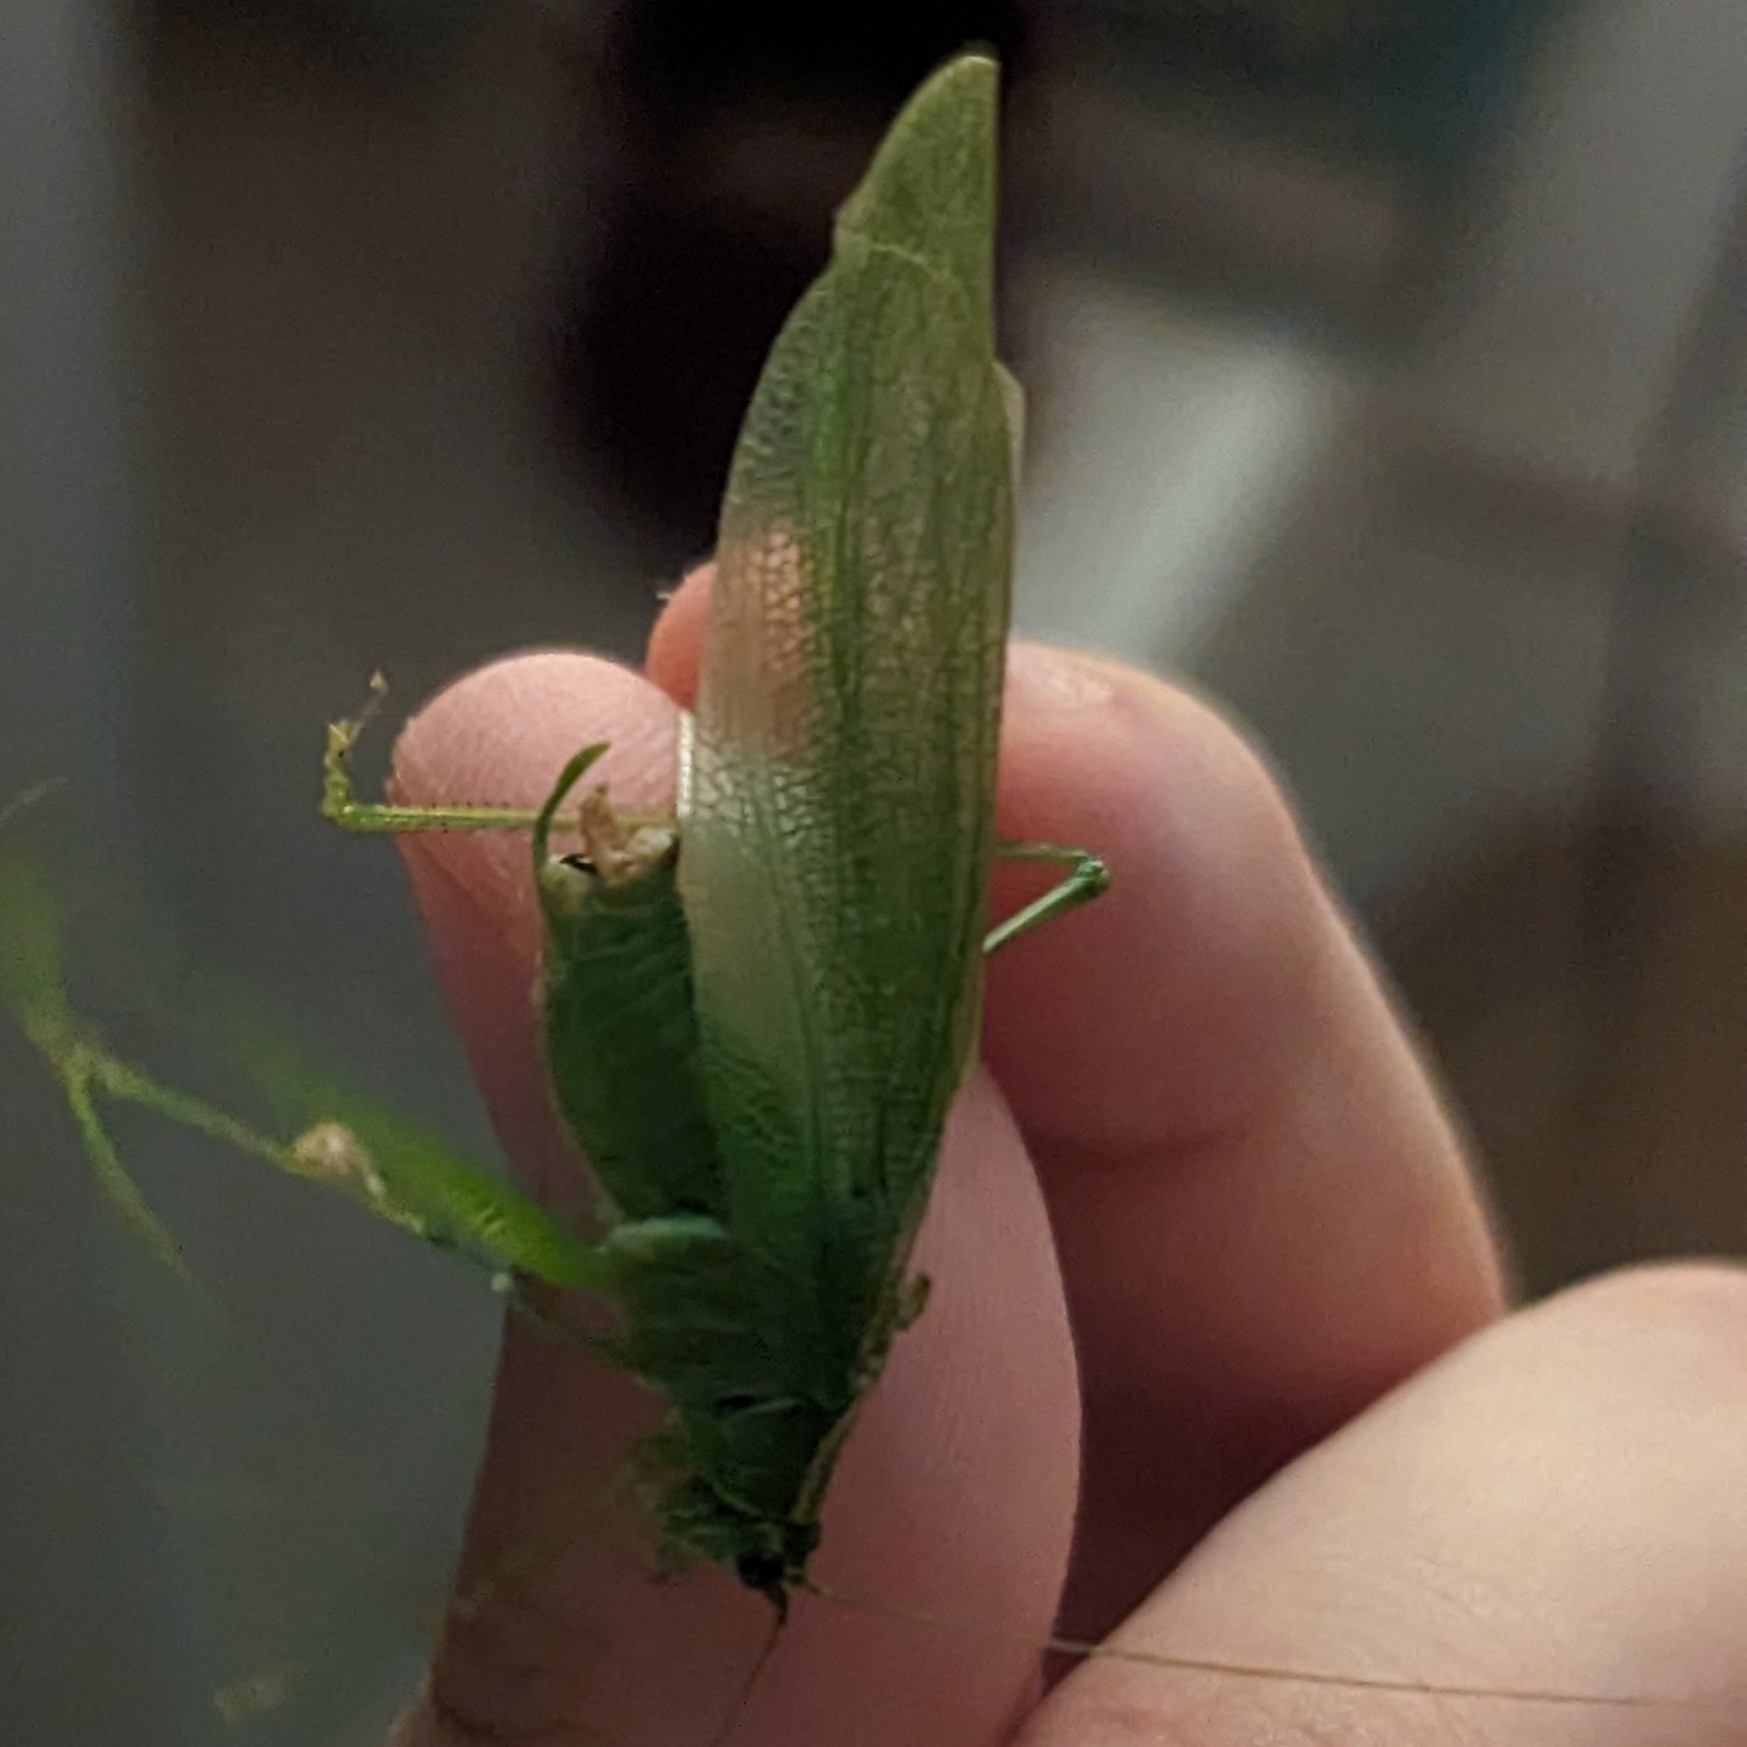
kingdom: Animalia
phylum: Arthropoda
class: Insecta
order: Orthoptera
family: Tettigoniidae
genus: Scudderia
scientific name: Scudderia septentrionalis
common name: Northern bush-katydid
